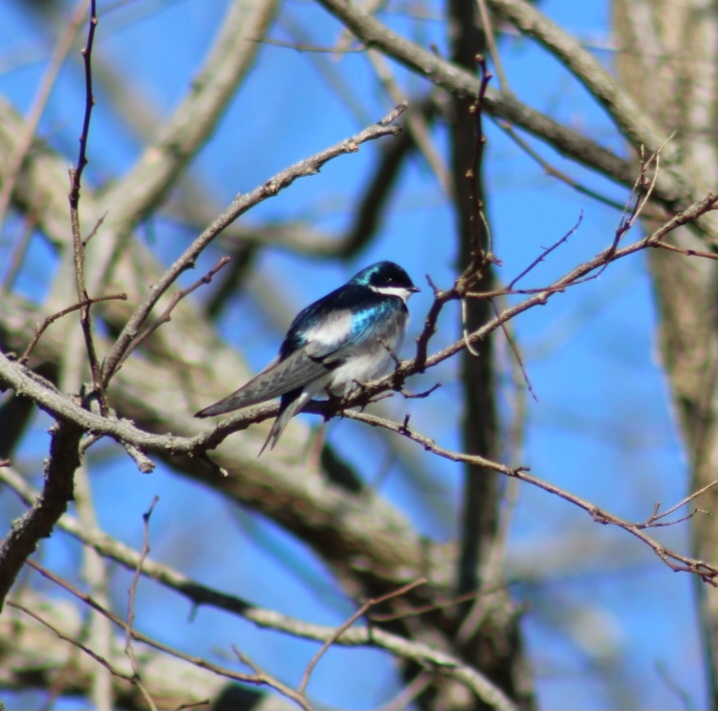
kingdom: Animalia
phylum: Chordata
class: Aves
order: Passeriformes
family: Hirundinidae
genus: Tachycineta
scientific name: Tachycineta bicolor
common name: Tree swallow
